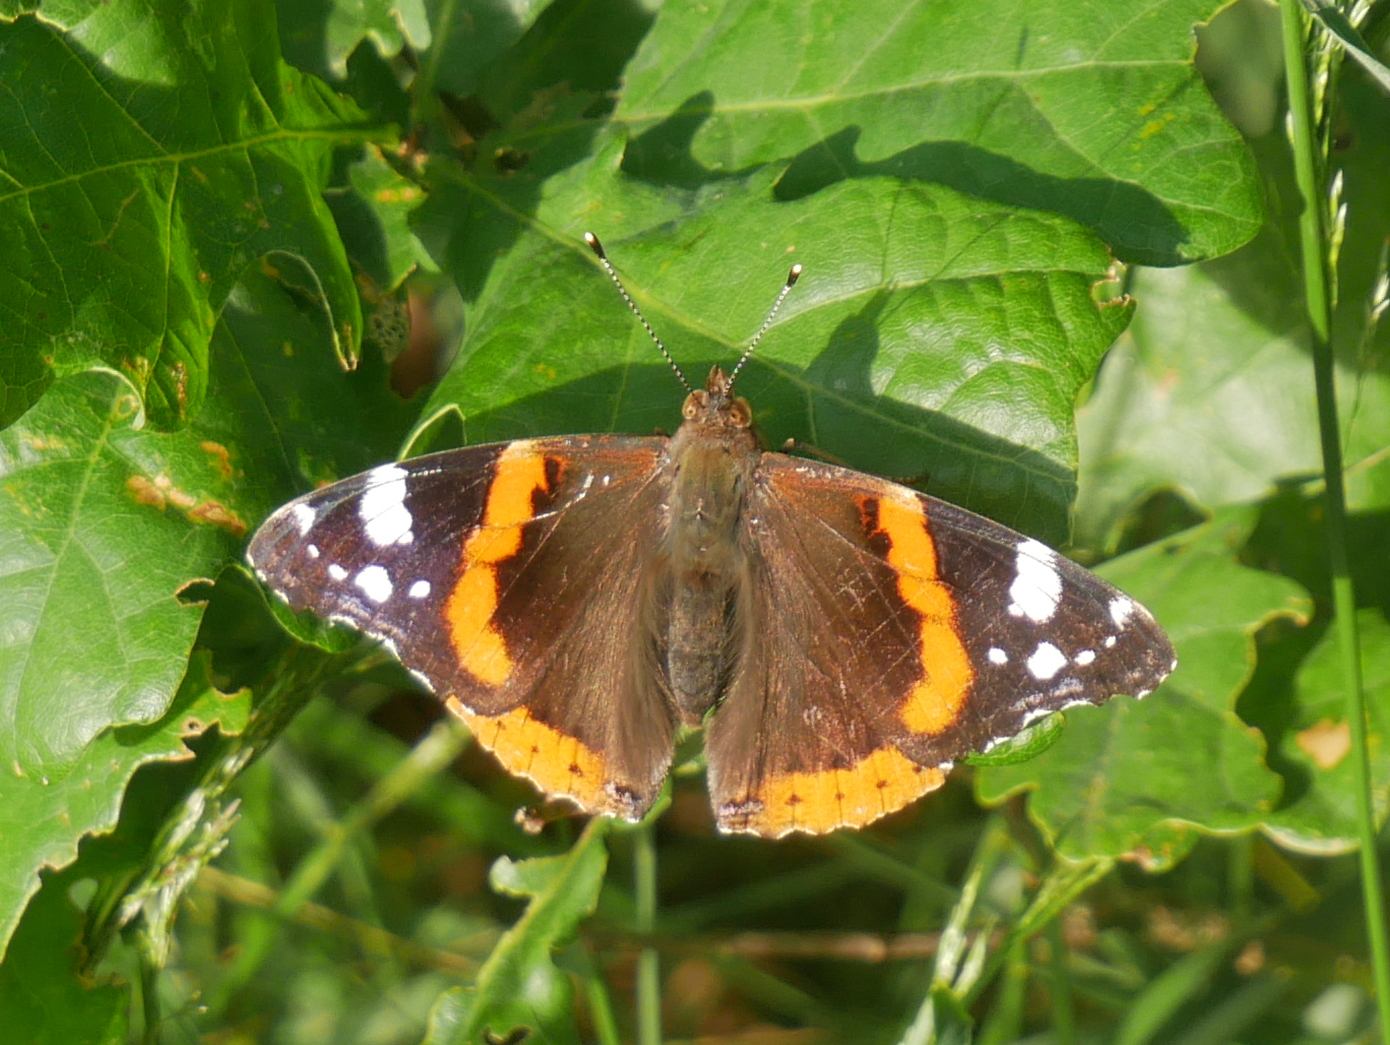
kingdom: Animalia
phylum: Arthropoda
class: Insecta
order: Lepidoptera
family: Nymphalidae
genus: Vanessa
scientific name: Vanessa atalanta
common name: Red admiral
